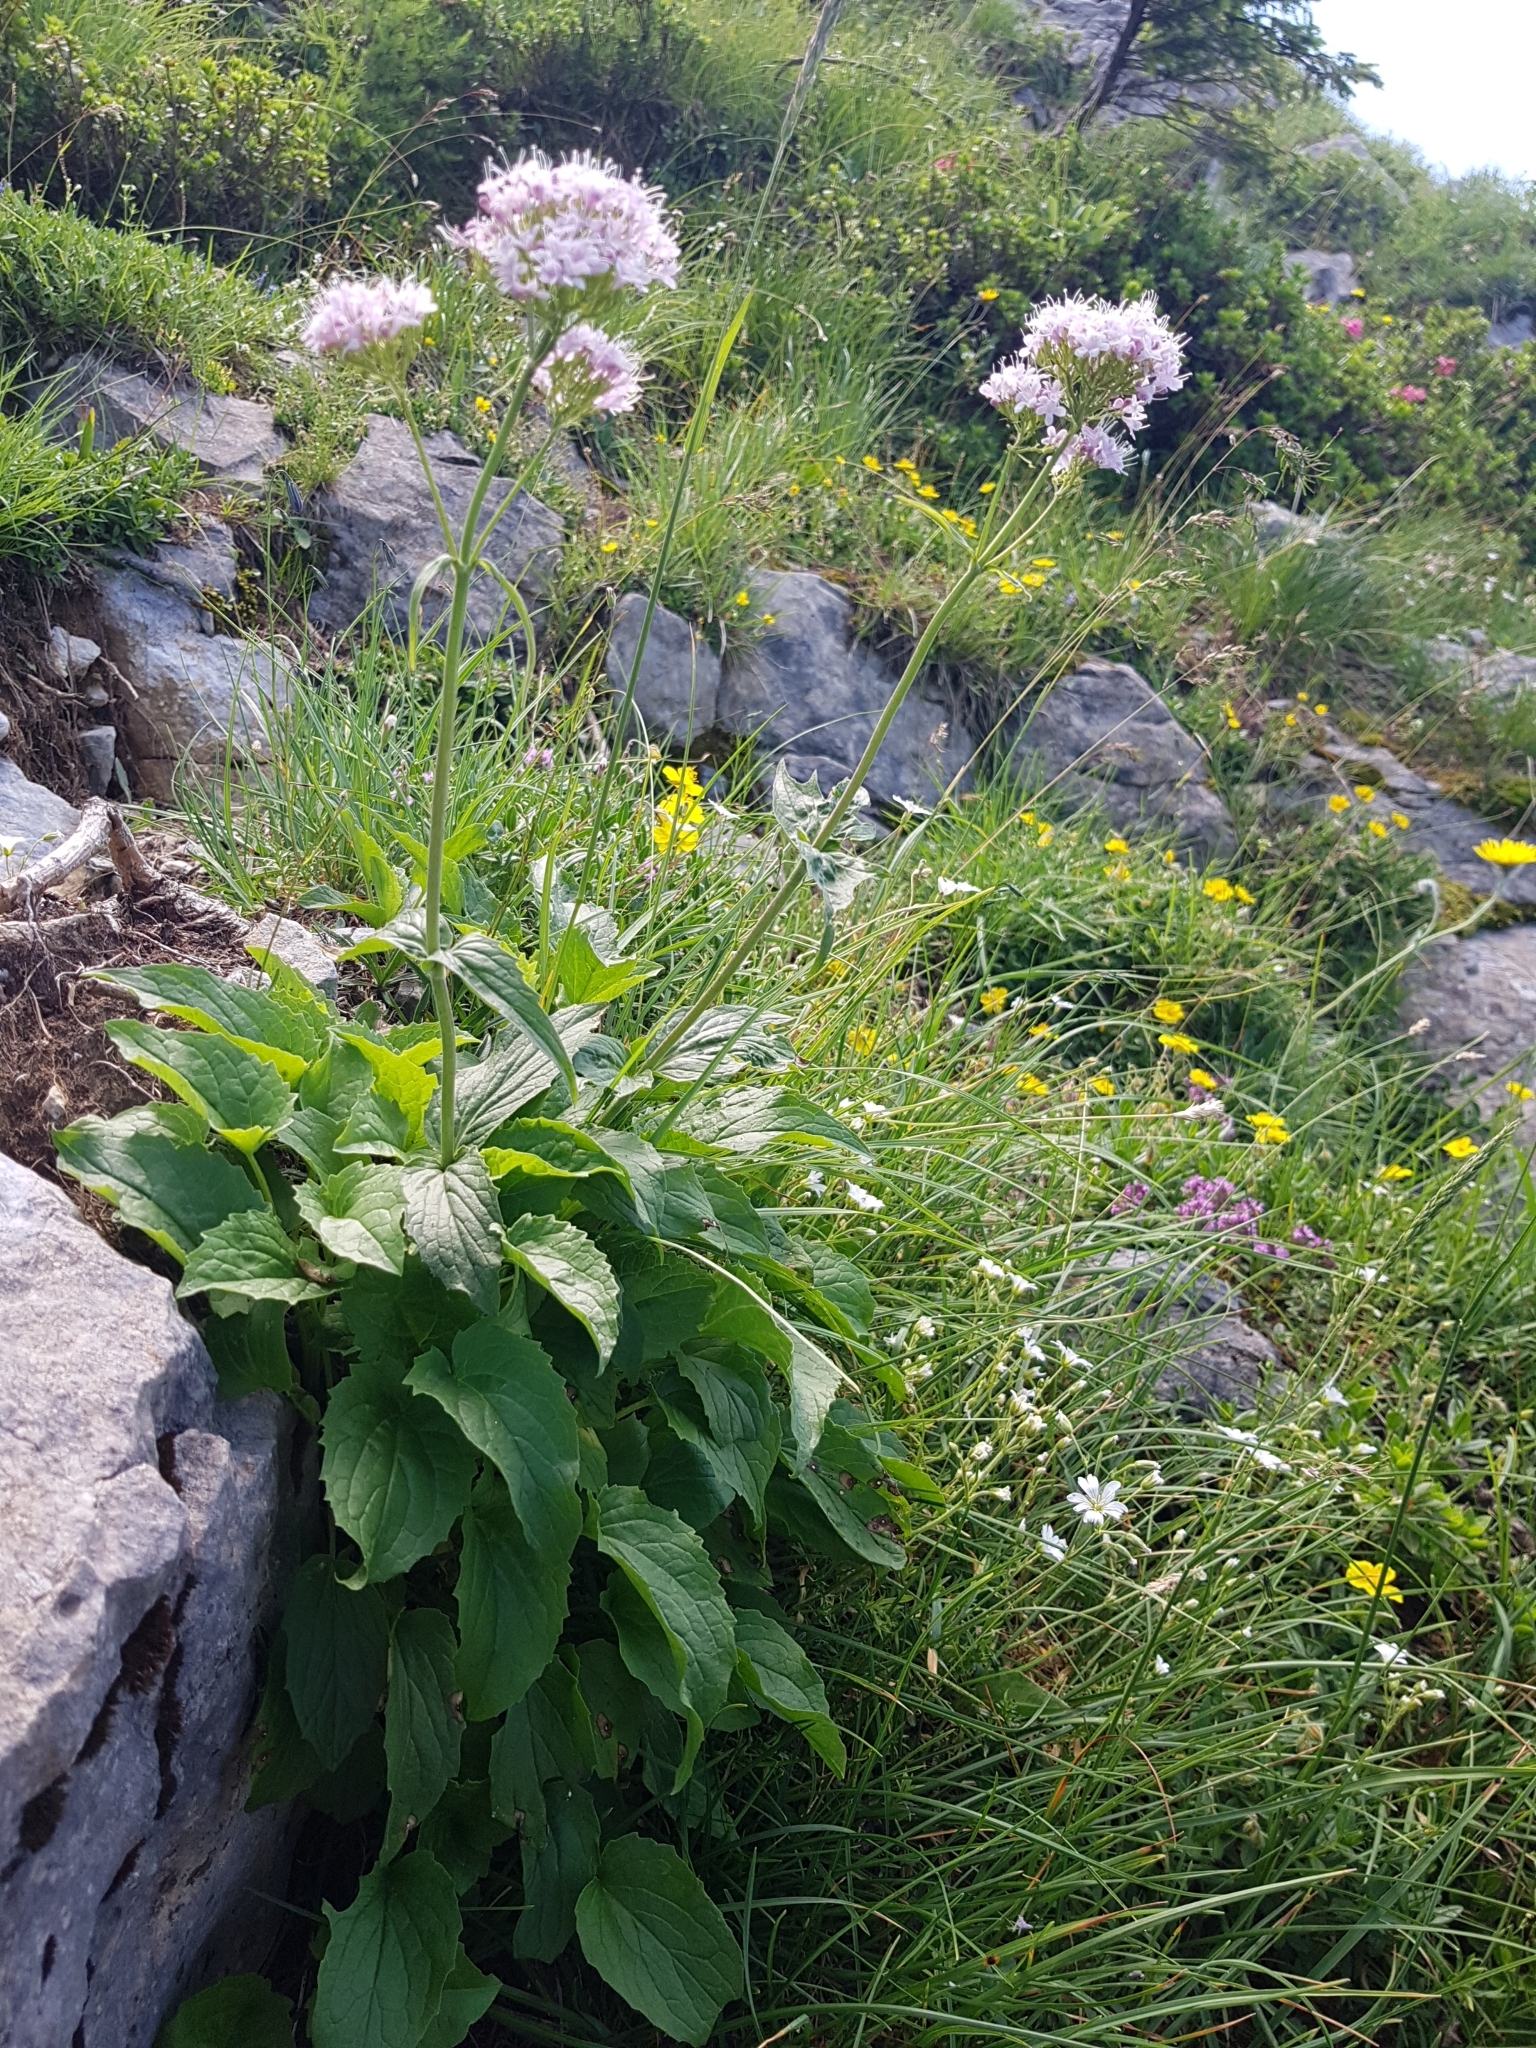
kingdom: Plantae
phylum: Tracheophyta
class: Magnoliopsida
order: Dipsacales
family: Caprifoliaceae
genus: Valeriana
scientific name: Valeriana montana
